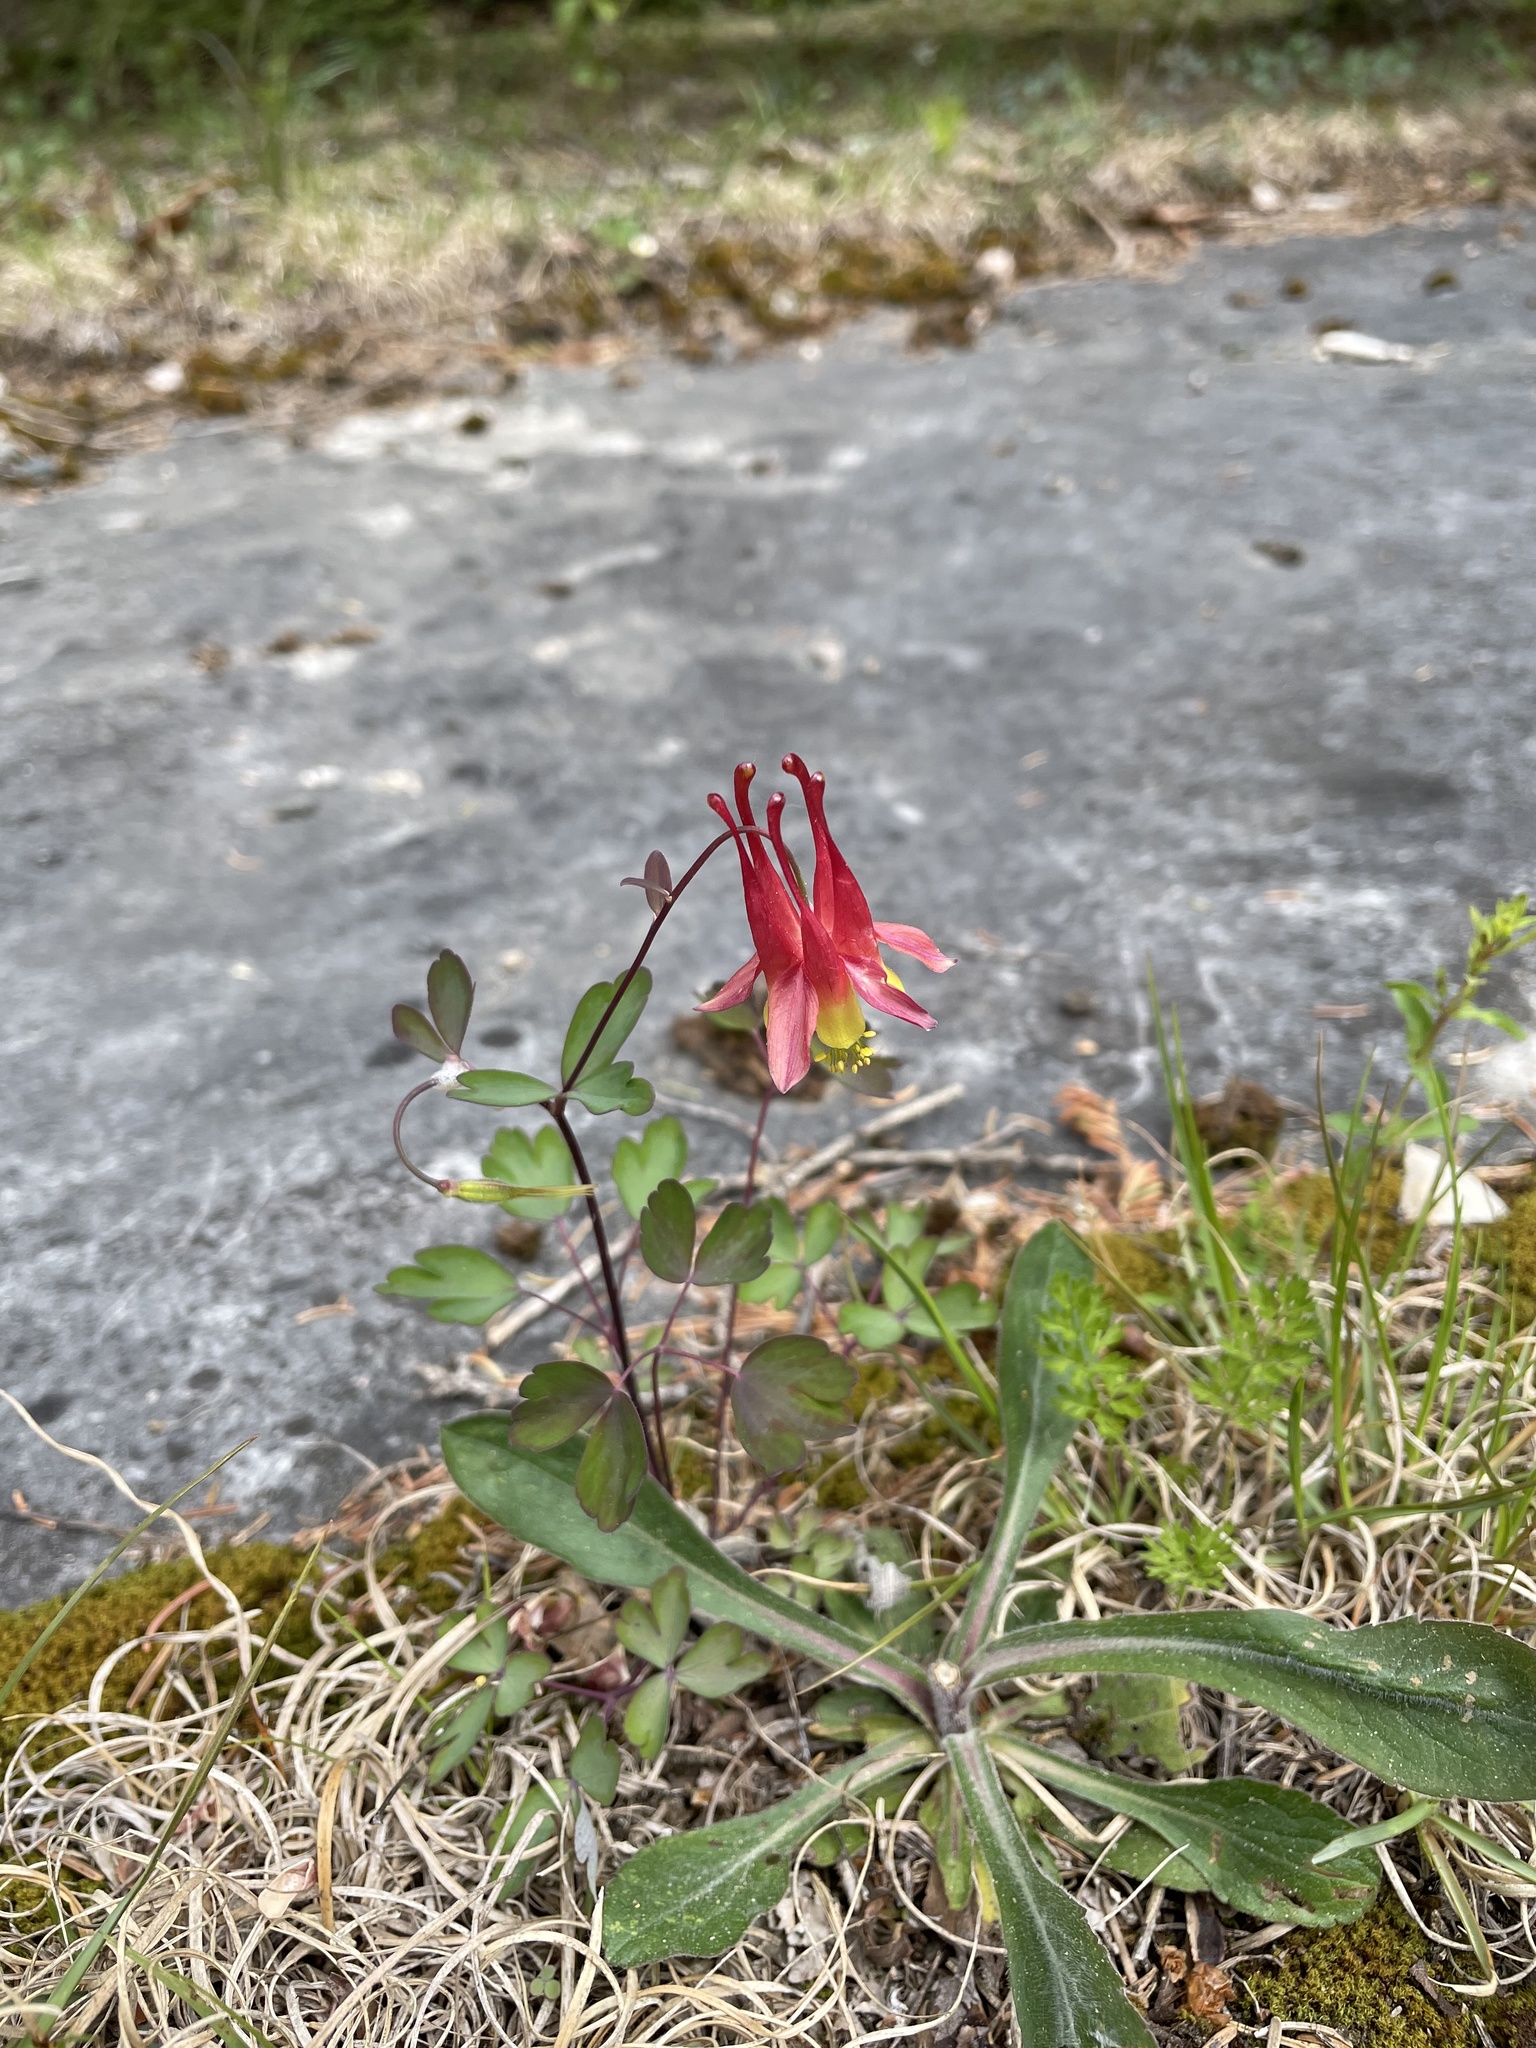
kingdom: Plantae
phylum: Tracheophyta
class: Magnoliopsida
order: Ranunculales
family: Ranunculaceae
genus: Aquilegia
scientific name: Aquilegia canadensis
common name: American columbine
